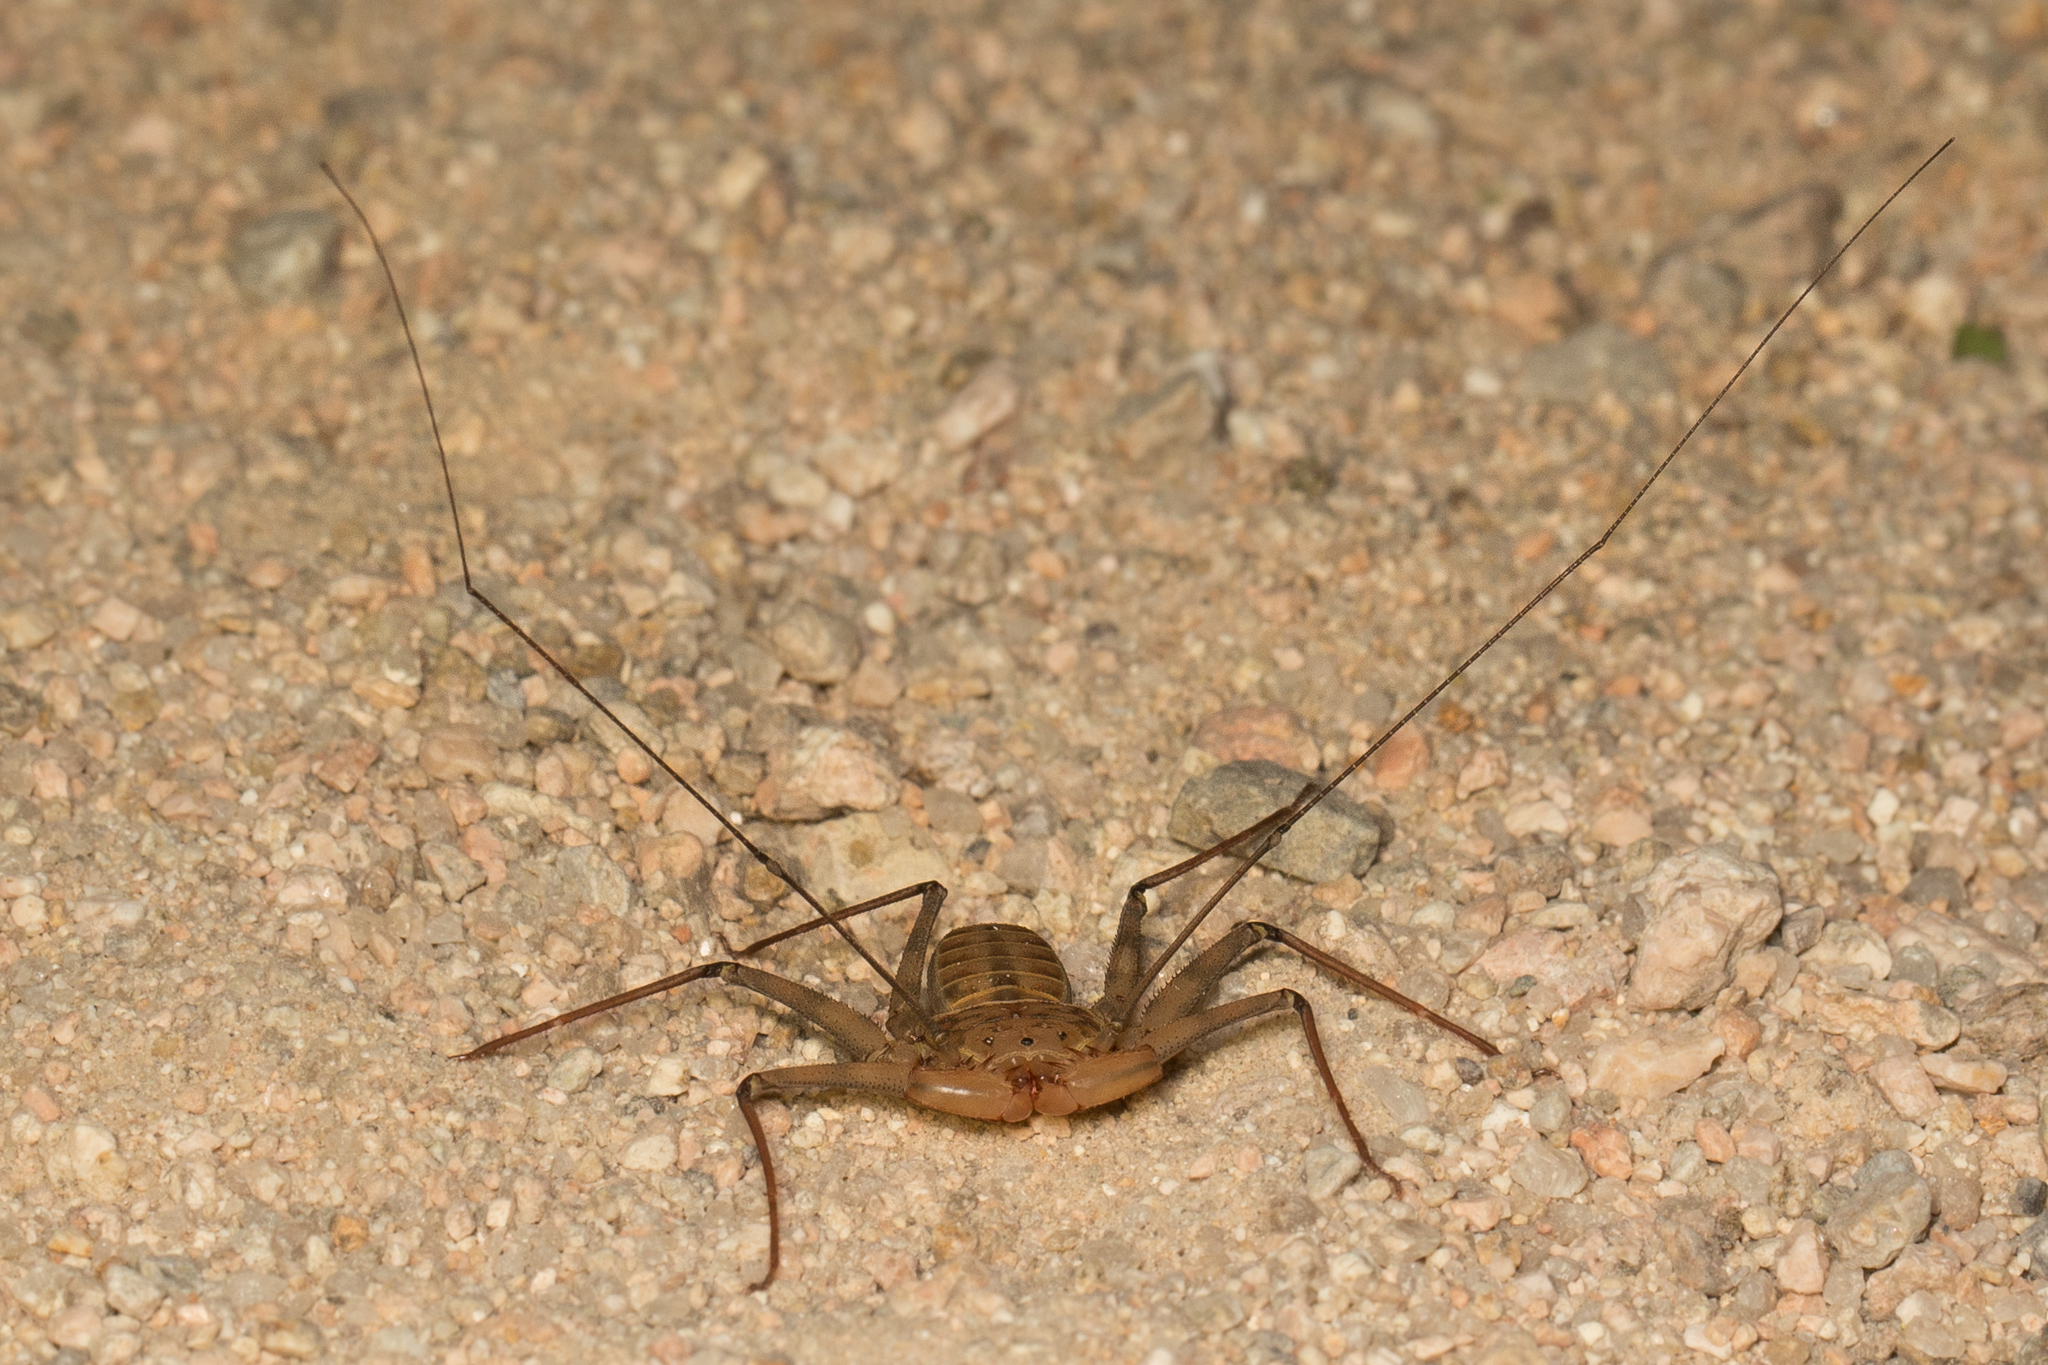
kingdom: Animalia
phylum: Arthropoda
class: Arachnida
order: Amblypygi
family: Phrynidae
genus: Phrynus
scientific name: Phrynus asperatipes
